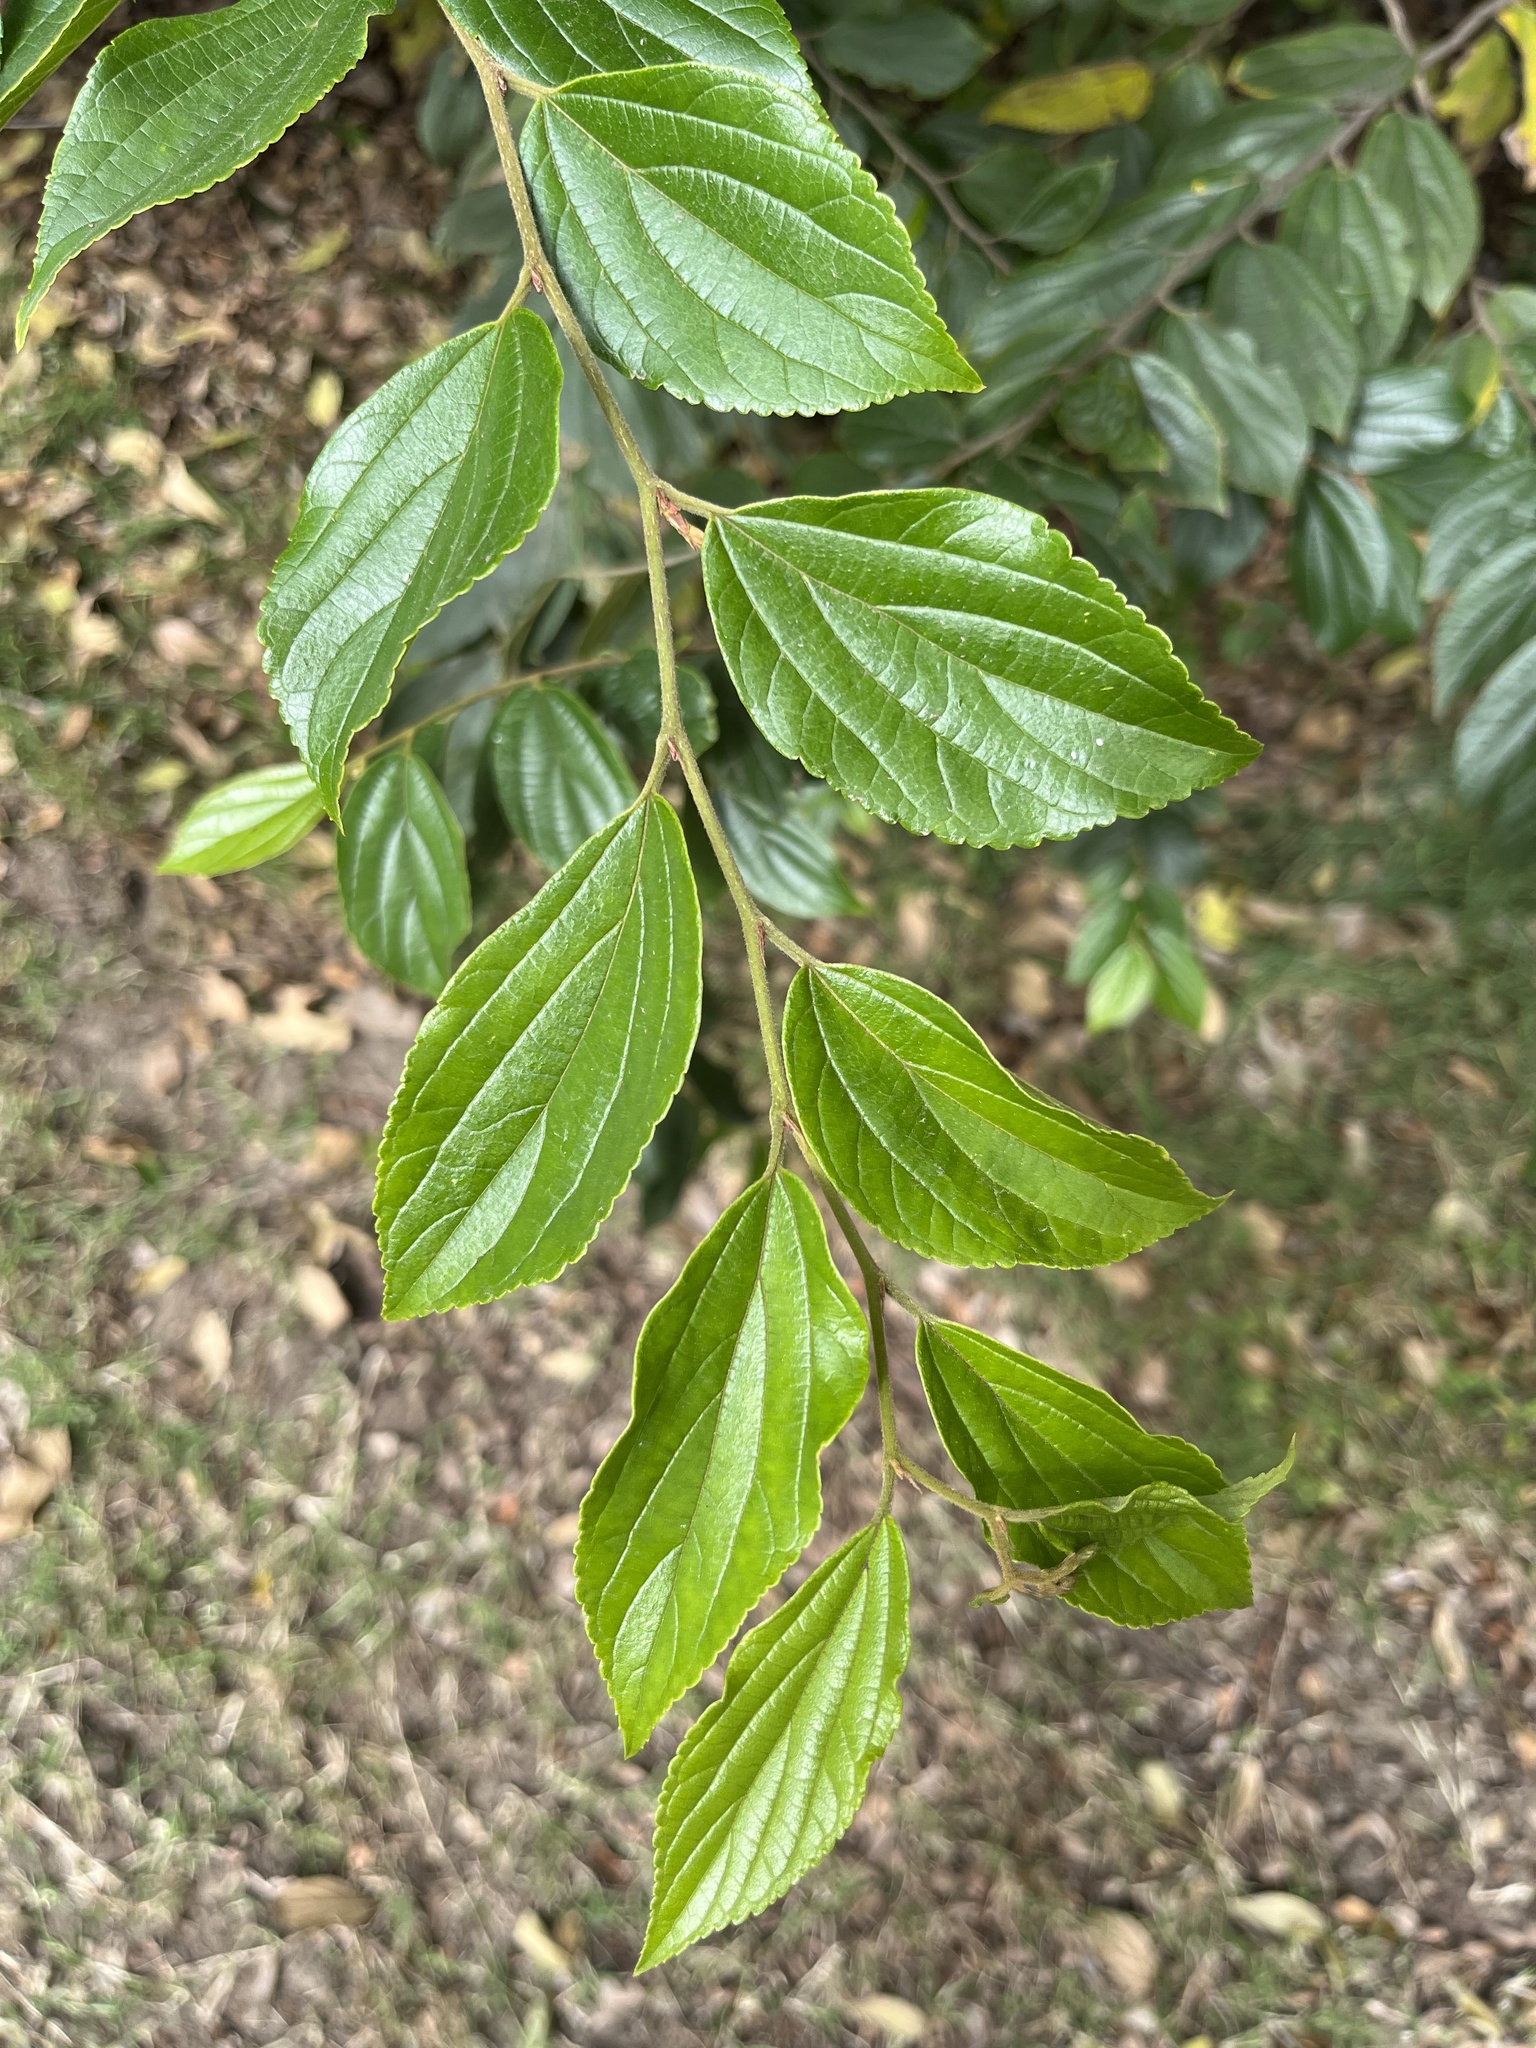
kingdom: Plantae
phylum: Tracheophyta
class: Magnoliopsida
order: Rosales
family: Cannabaceae
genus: Celtis
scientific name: Celtis sinensis
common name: Chinese hackberry
